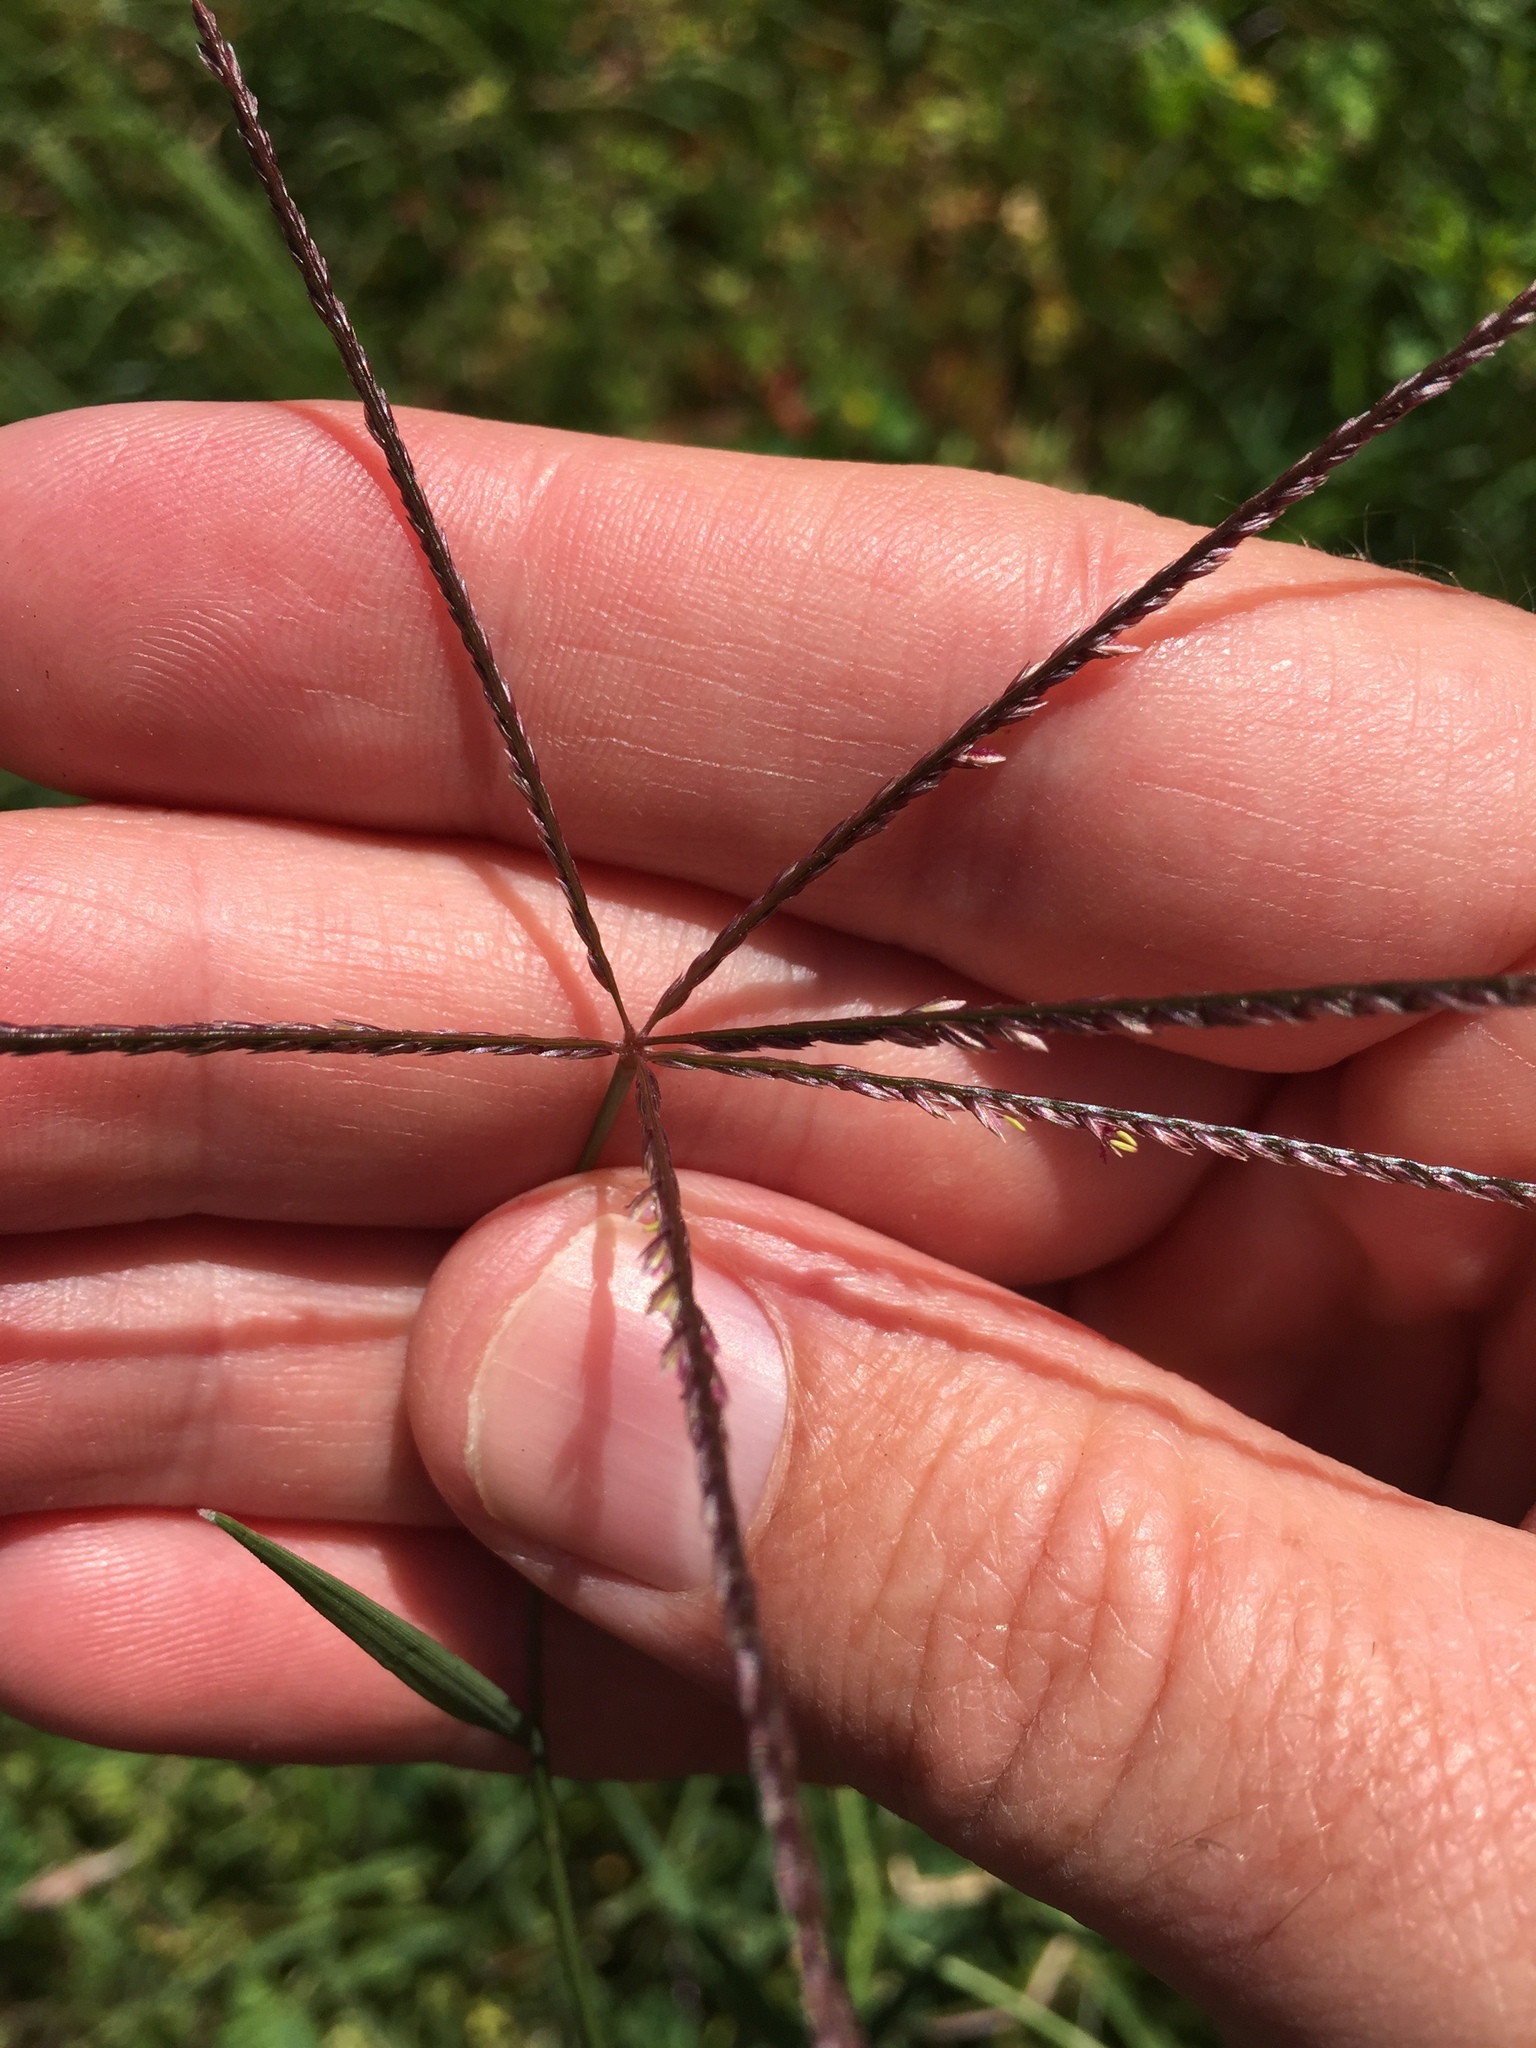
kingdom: Plantae
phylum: Tracheophyta
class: Liliopsida
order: Poales
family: Poaceae
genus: Cynodon
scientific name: Cynodon dactylon
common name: Bermuda grass
